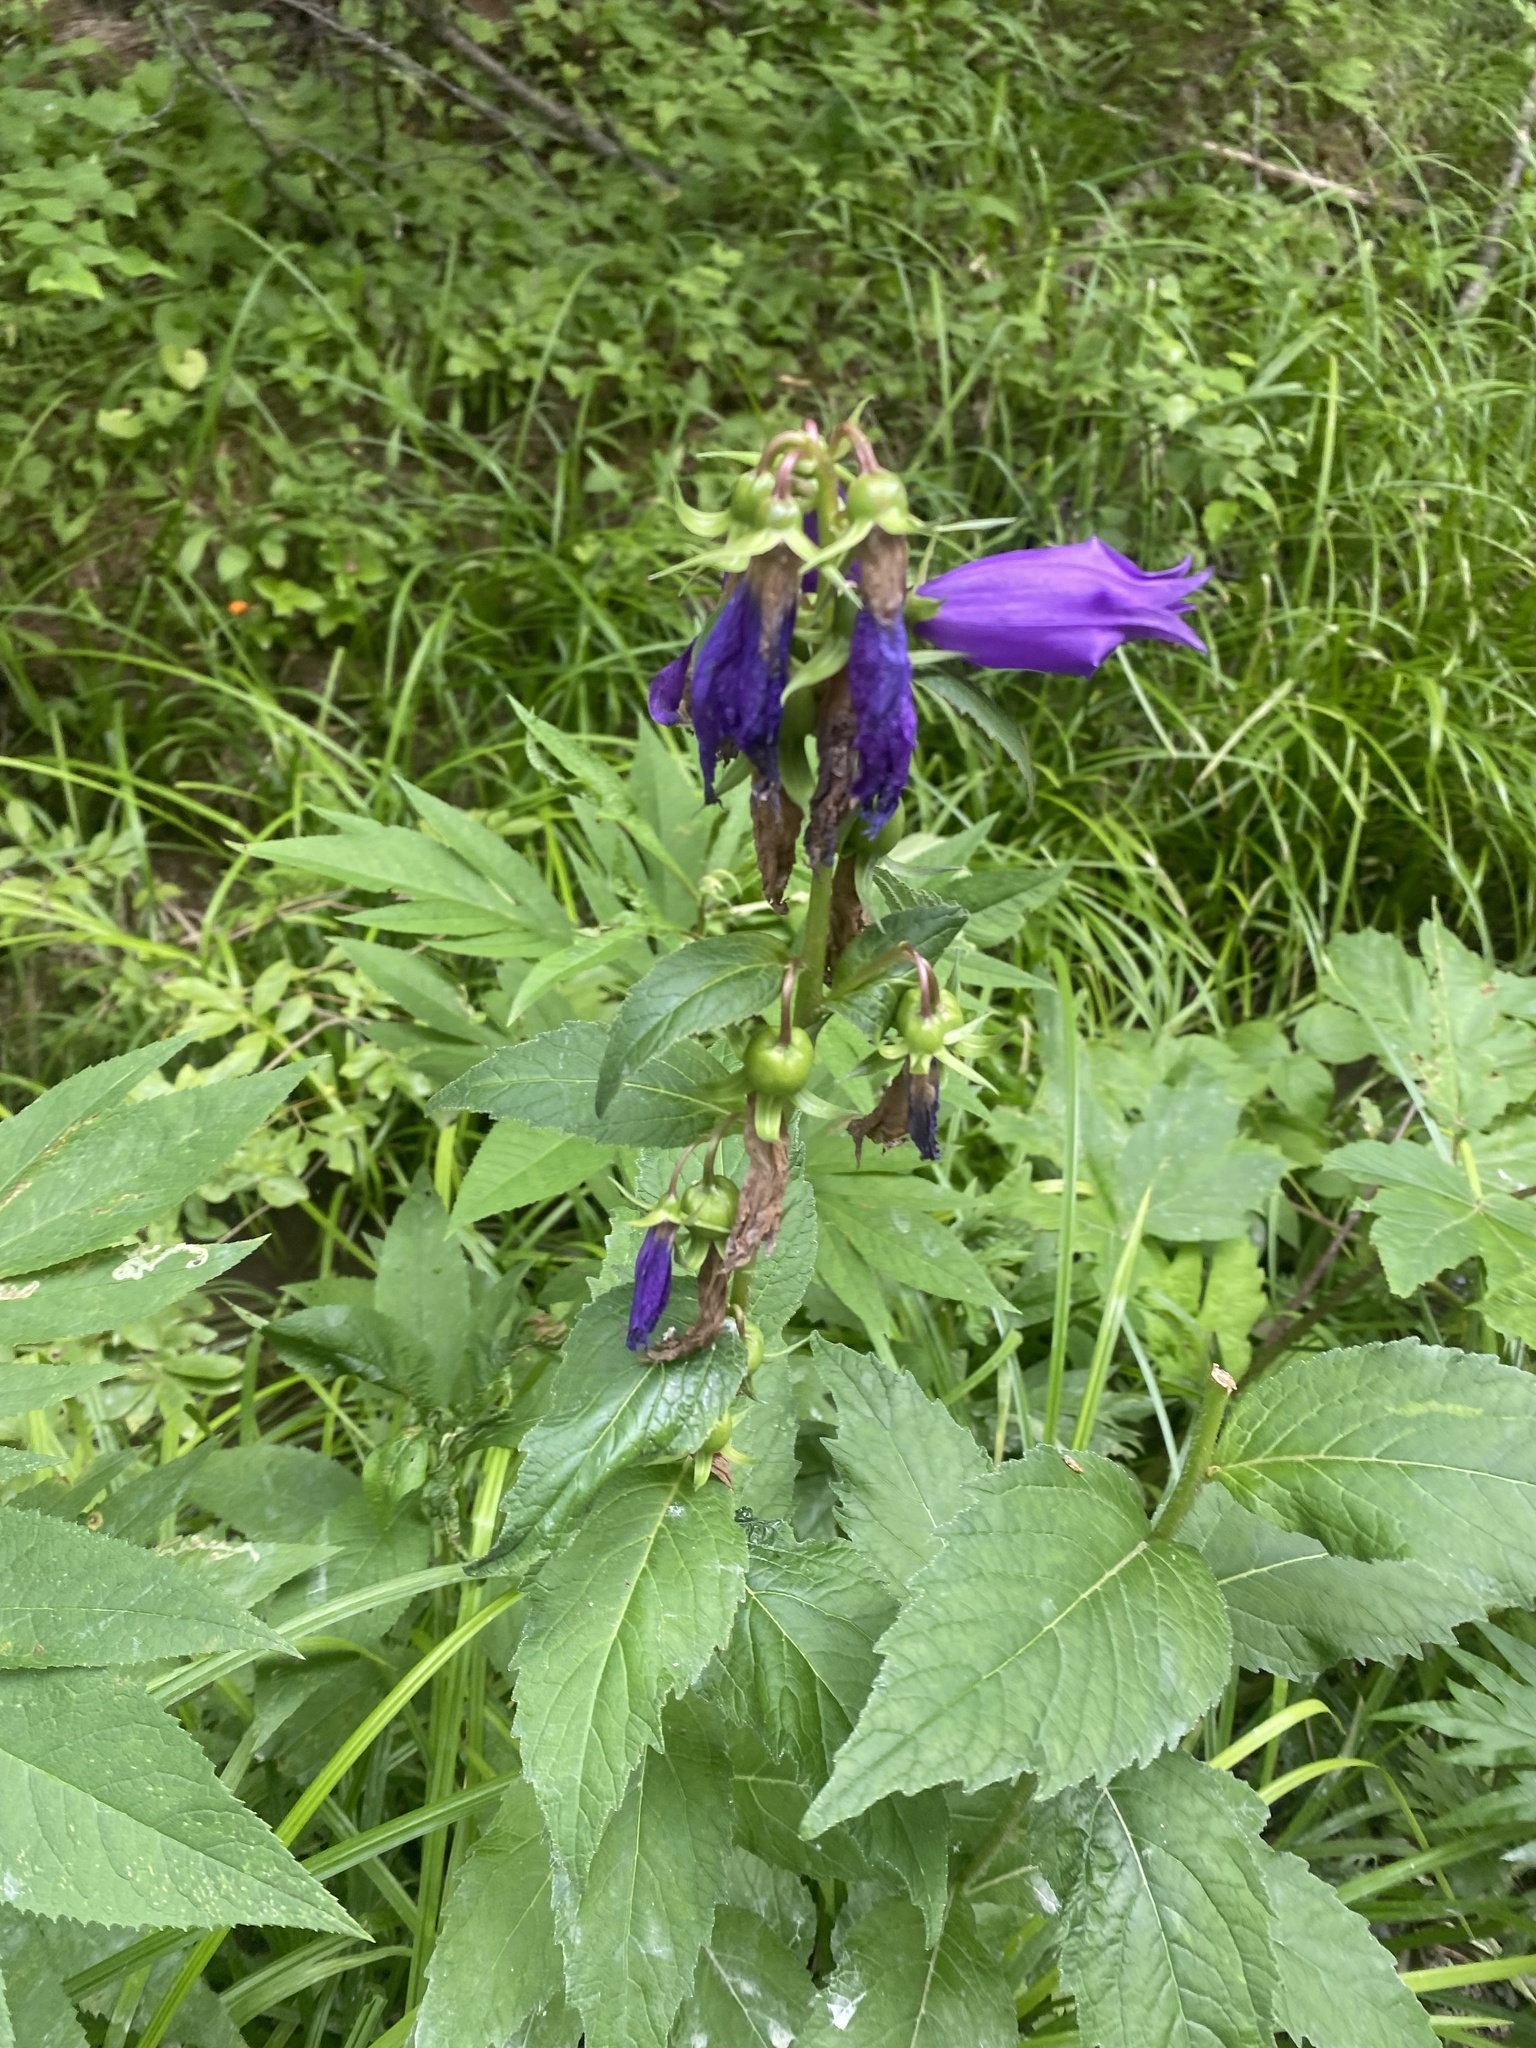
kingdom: Plantae
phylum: Tracheophyta
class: Magnoliopsida
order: Asterales
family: Campanulaceae
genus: Campanula
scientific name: Campanula latifolia
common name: Giant bellflower
